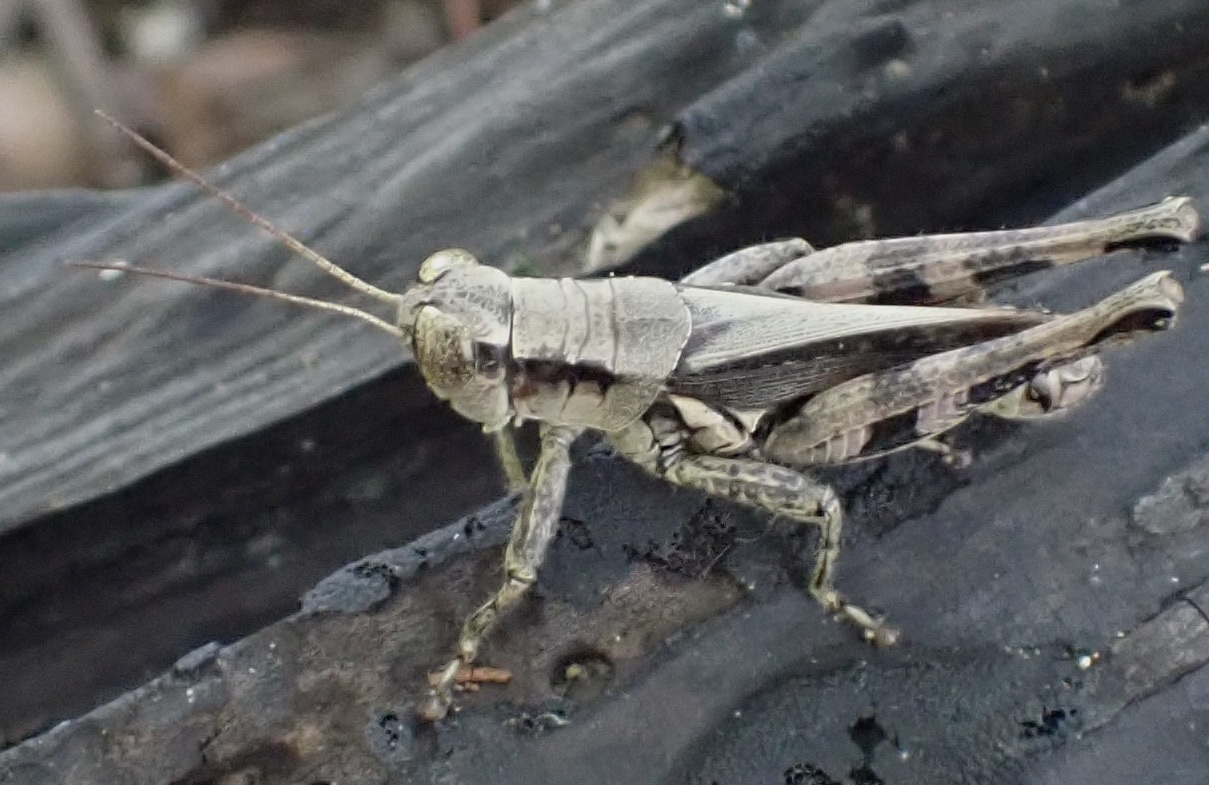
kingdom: Animalia
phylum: Arthropoda
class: Insecta
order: Orthoptera
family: Acrididae
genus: Melanoplus
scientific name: Melanoplus tunicae
